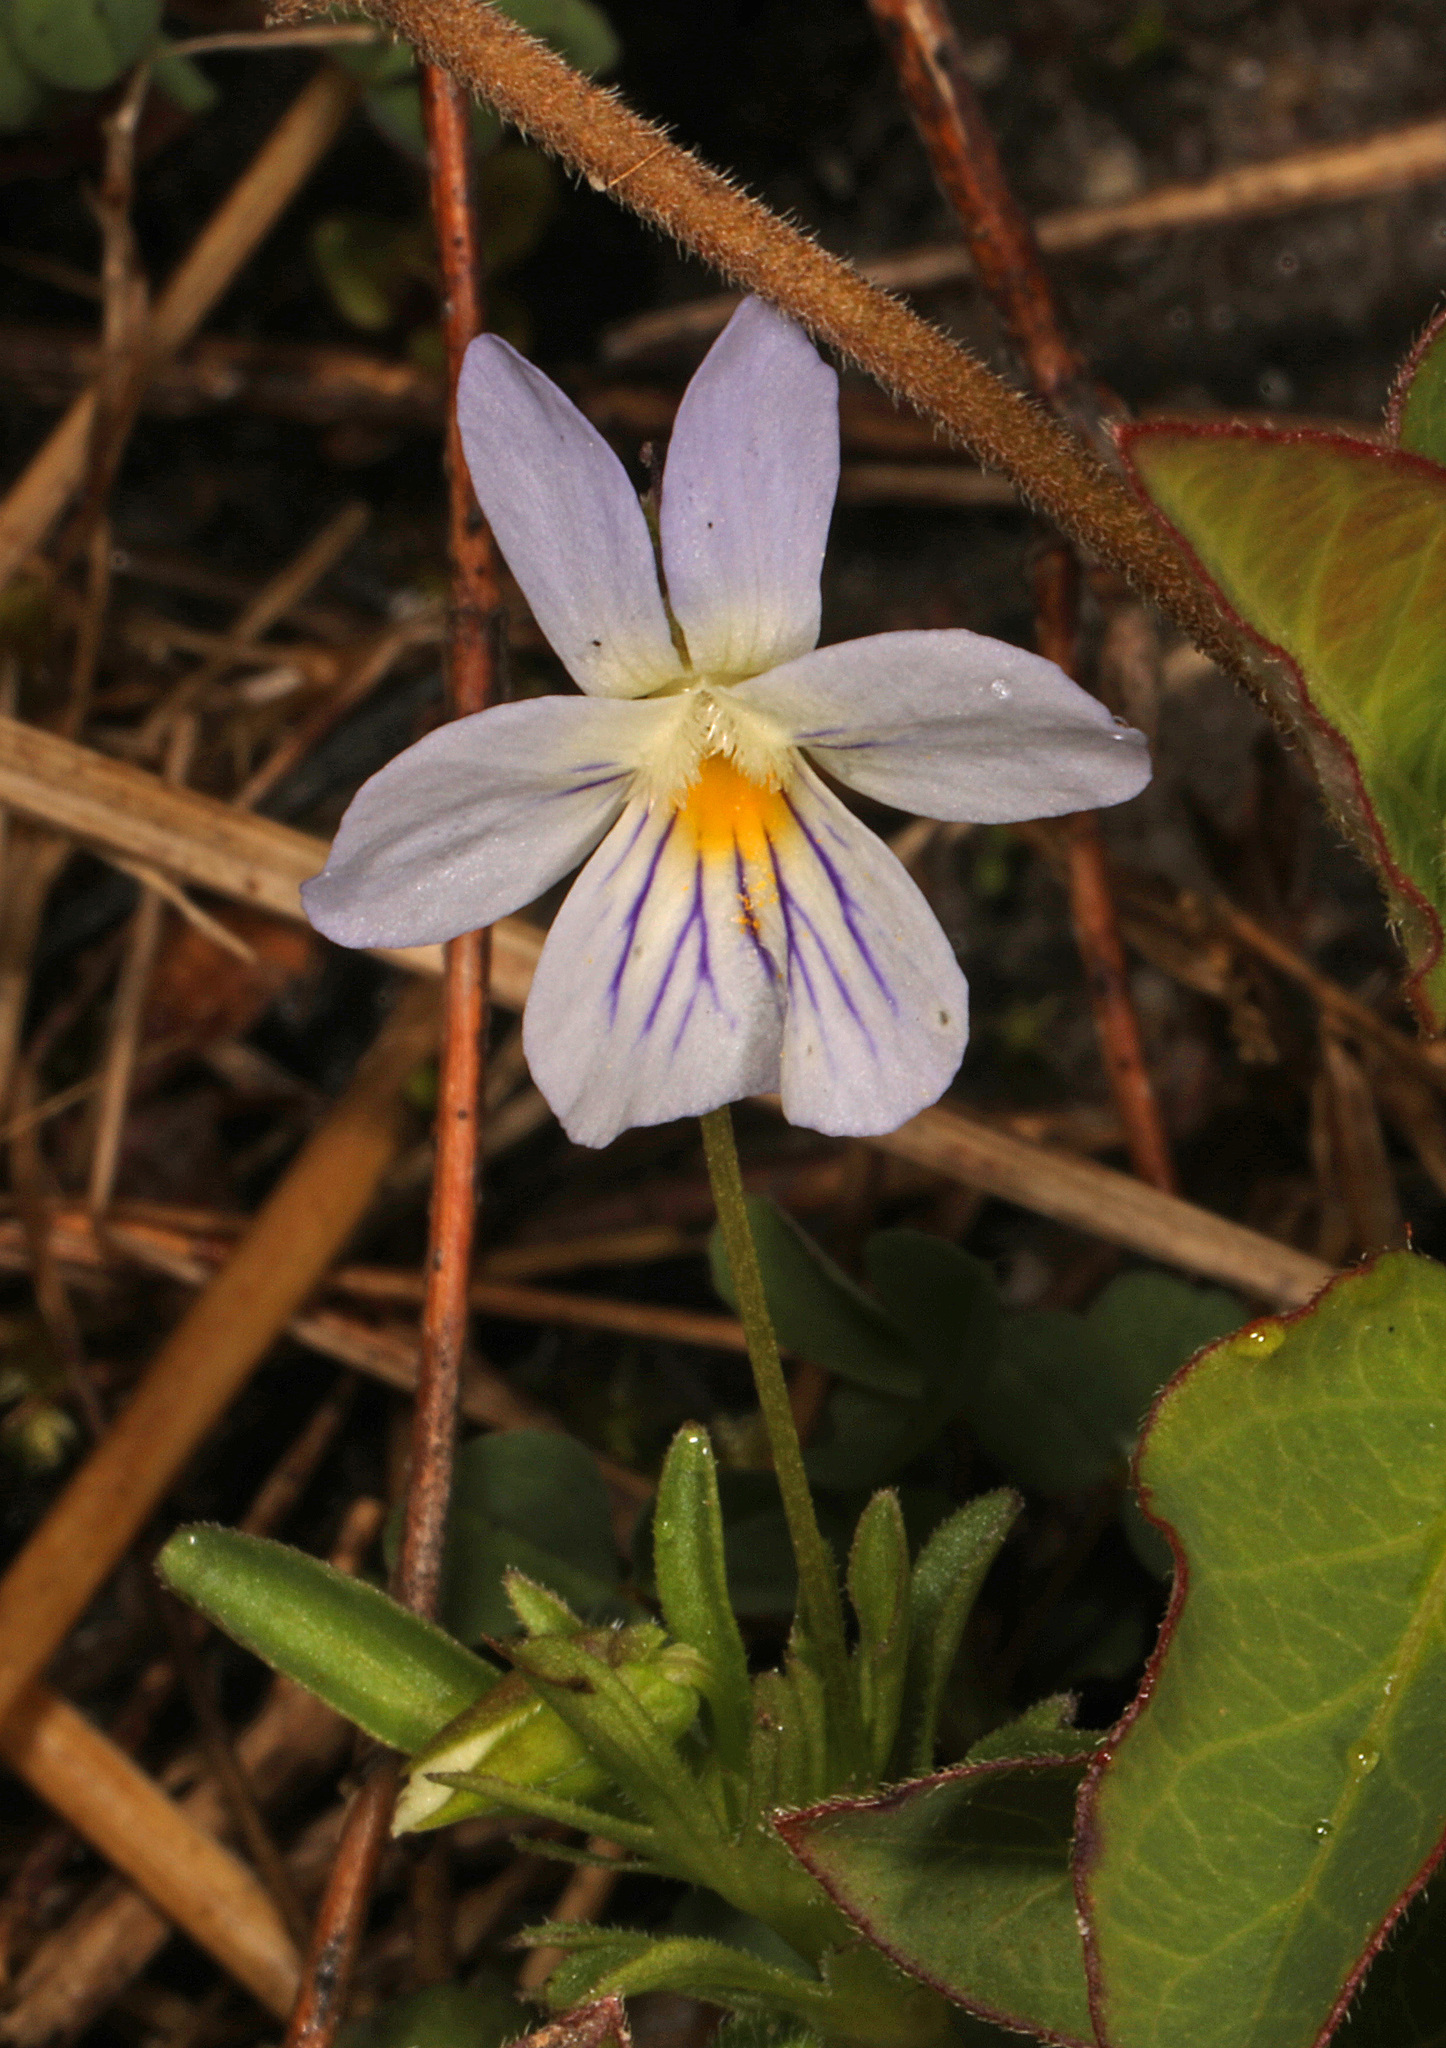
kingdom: Plantae
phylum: Tracheophyta
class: Magnoliopsida
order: Malpighiales
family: Violaceae
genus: Viola
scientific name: Viola rafinesquei
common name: American field pansy
